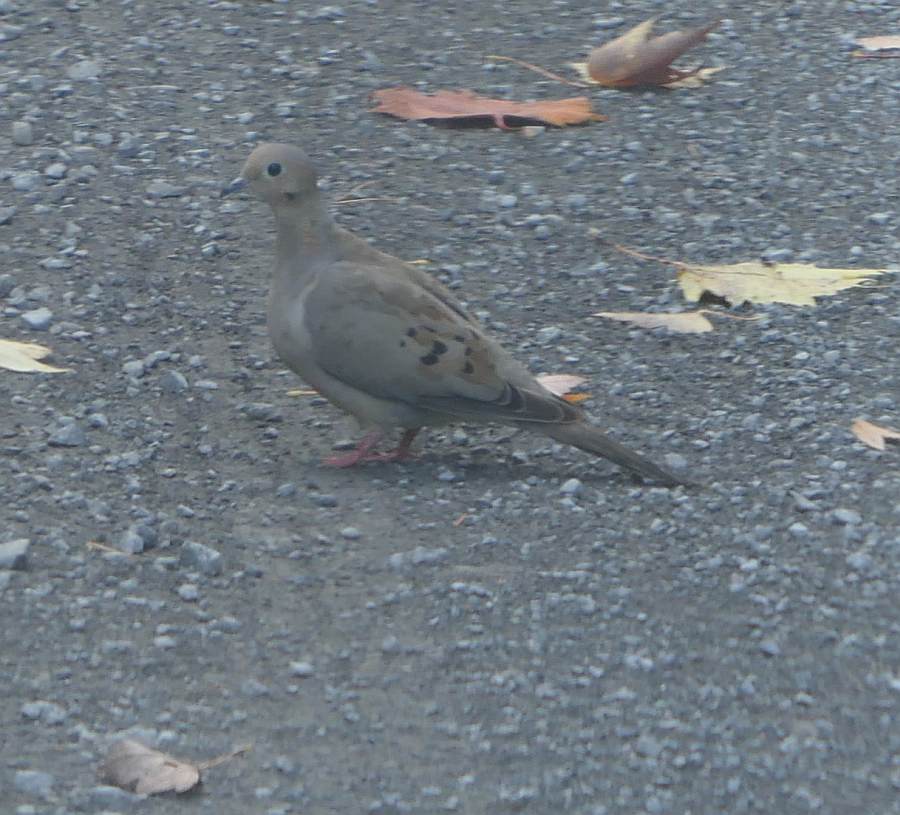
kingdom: Animalia
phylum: Chordata
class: Aves
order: Columbiformes
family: Columbidae
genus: Zenaida
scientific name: Zenaida macroura
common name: Mourning dove
